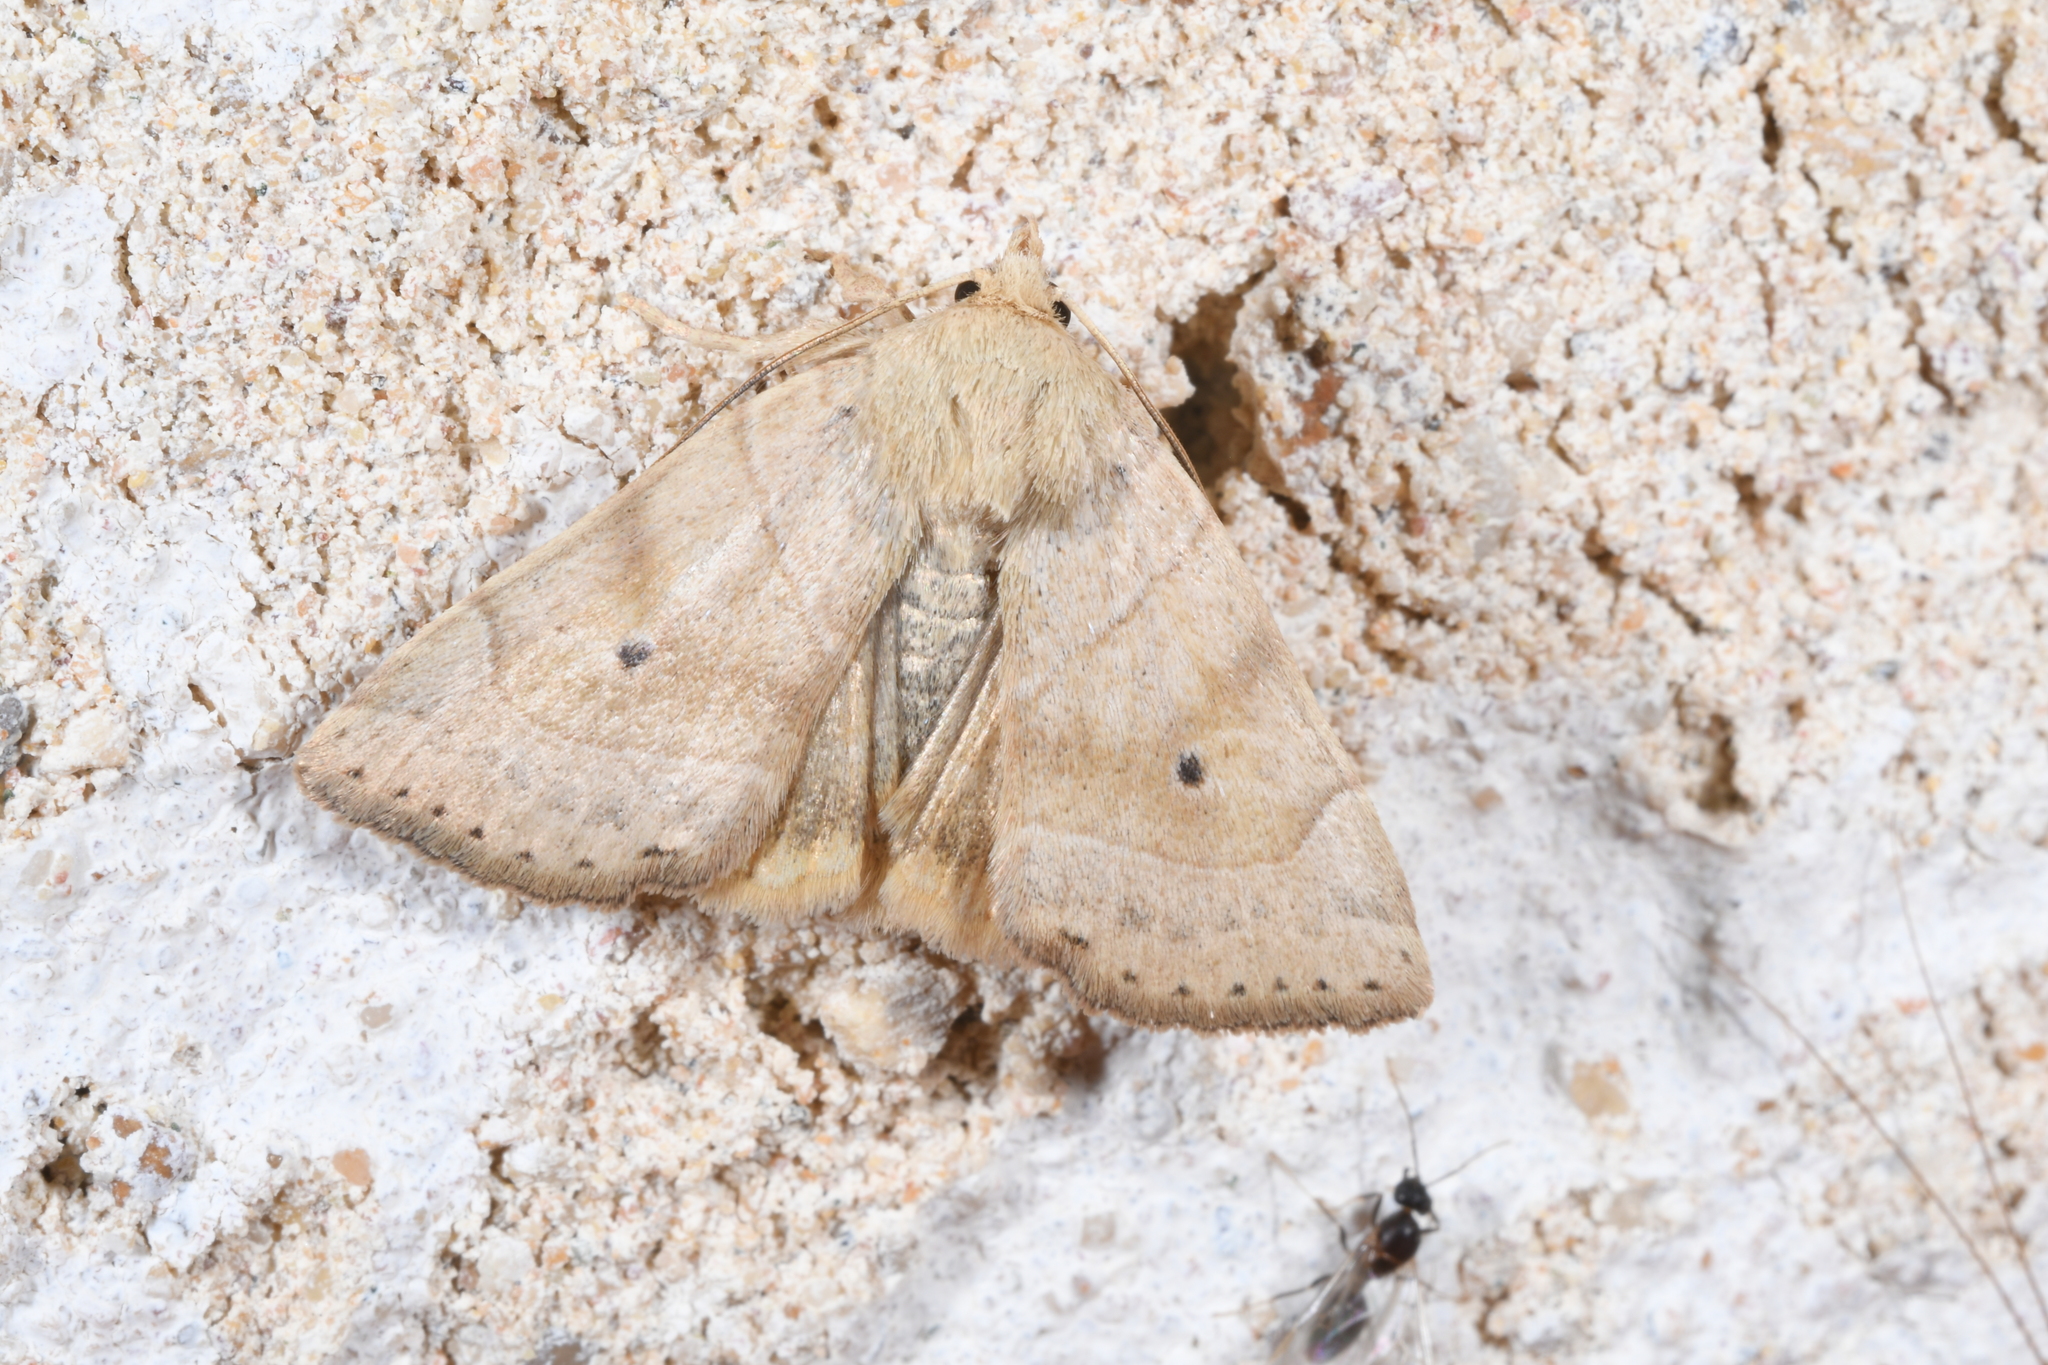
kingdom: Animalia
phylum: Arthropoda
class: Insecta
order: Lepidoptera
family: Noctuidae
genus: Cosmia
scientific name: Cosmia trapezina
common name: Dun-bar
